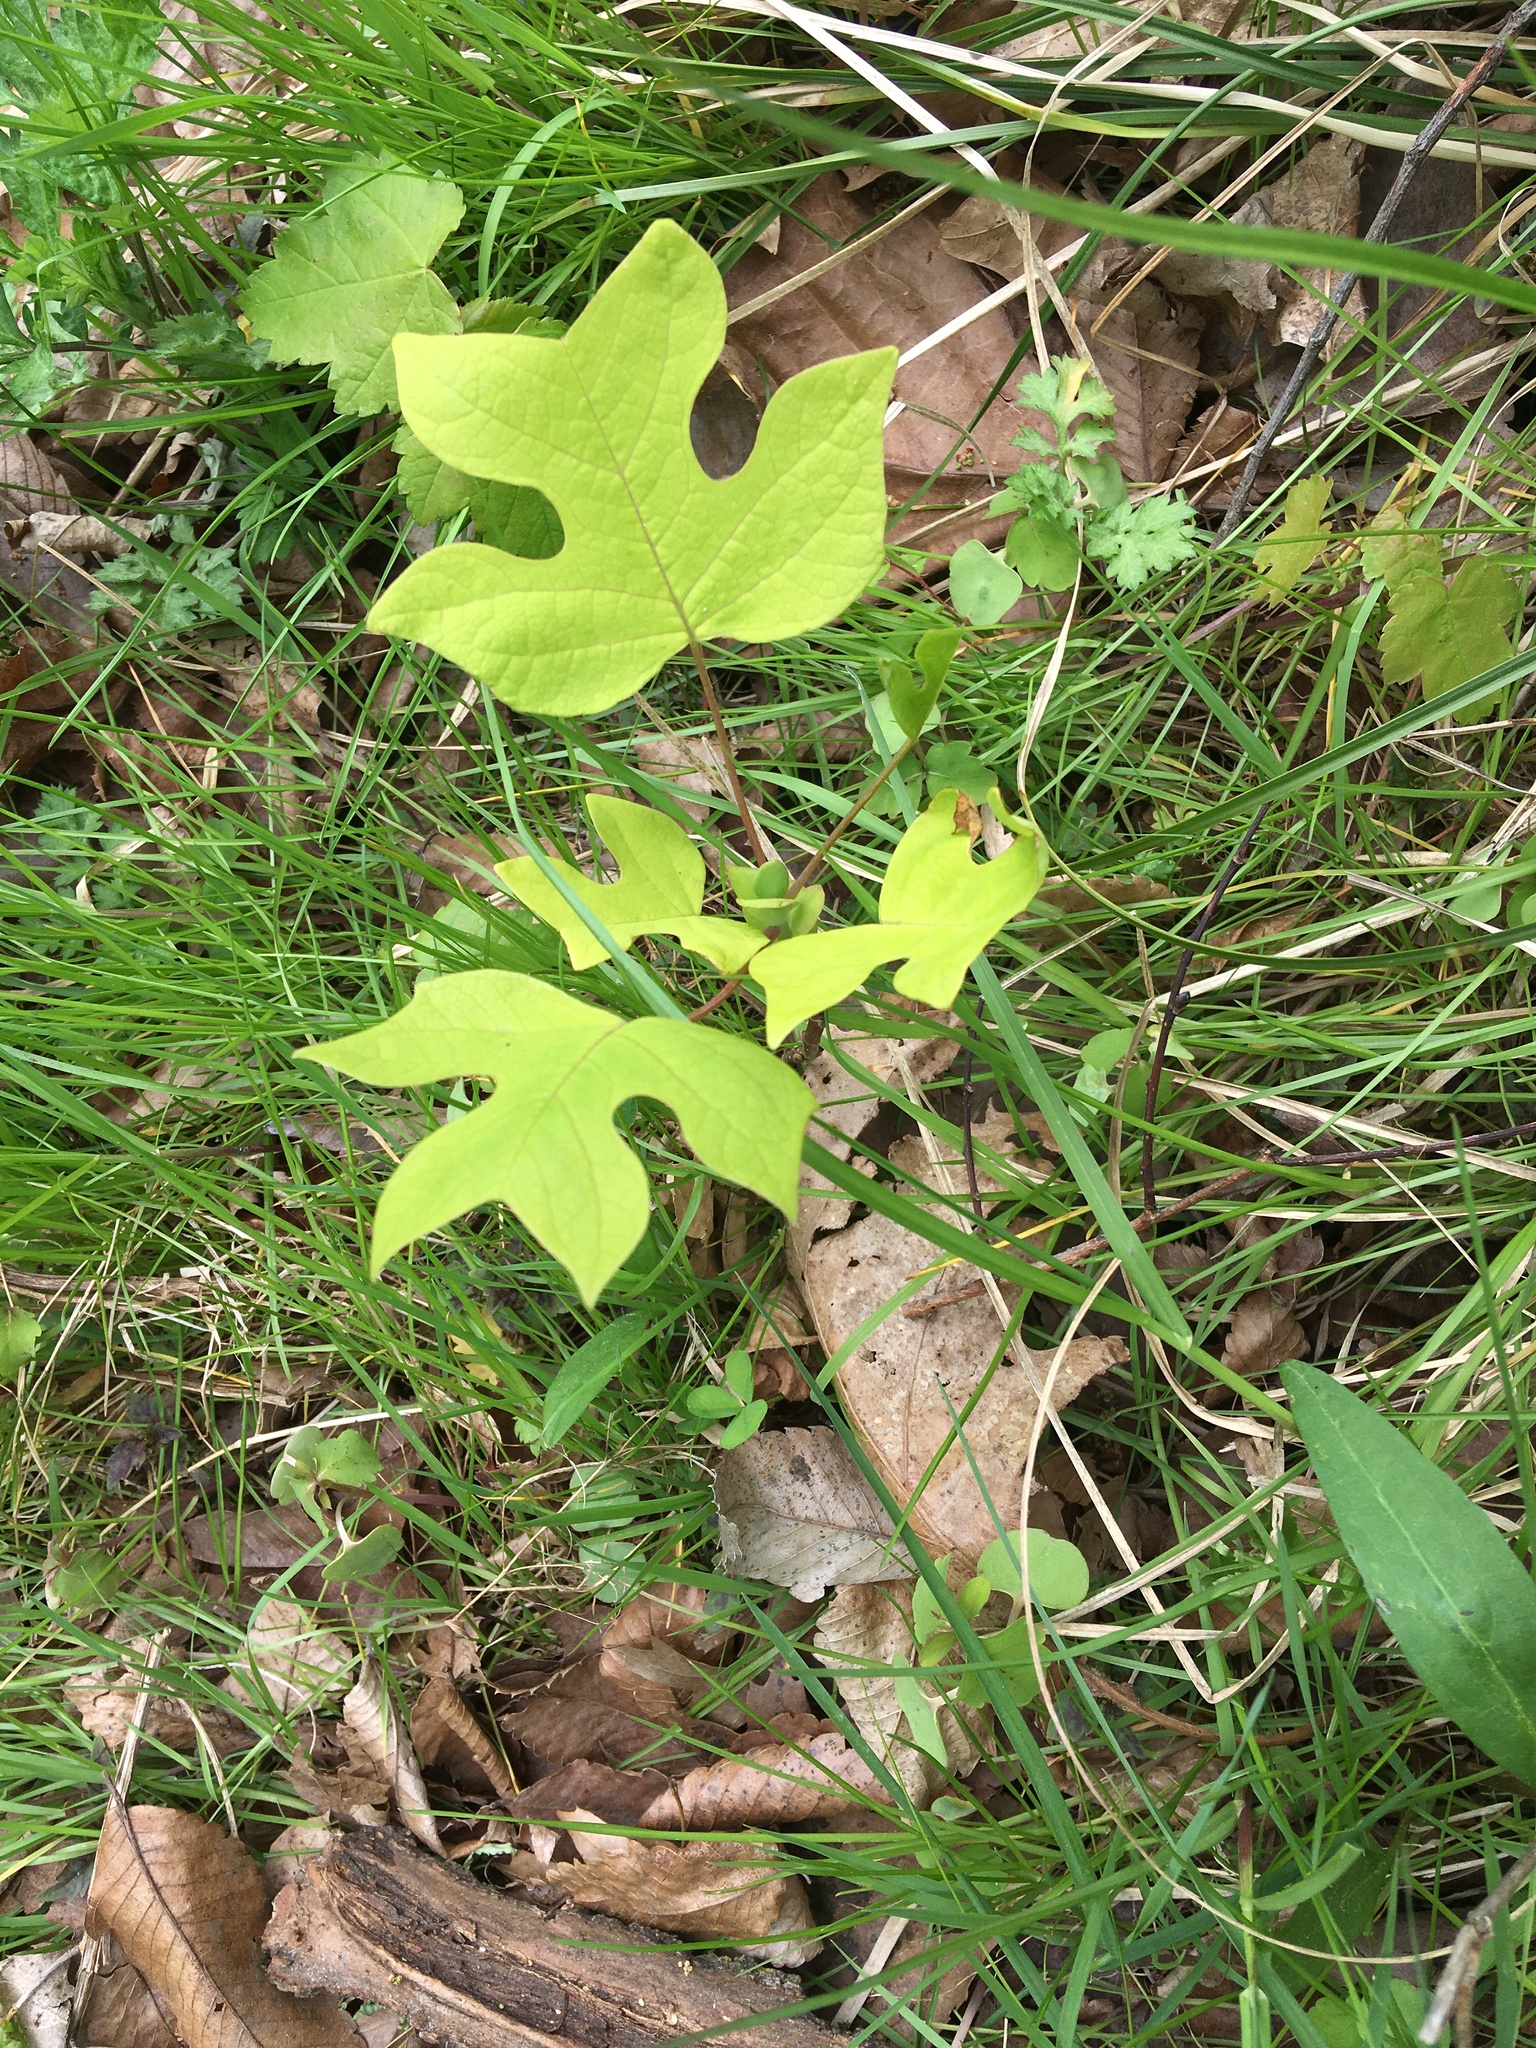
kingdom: Plantae
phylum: Tracheophyta
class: Magnoliopsida
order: Magnoliales
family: Magnoliaceae
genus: Liriodendron
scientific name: Liriodendron tulipifera
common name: Tulip tree
